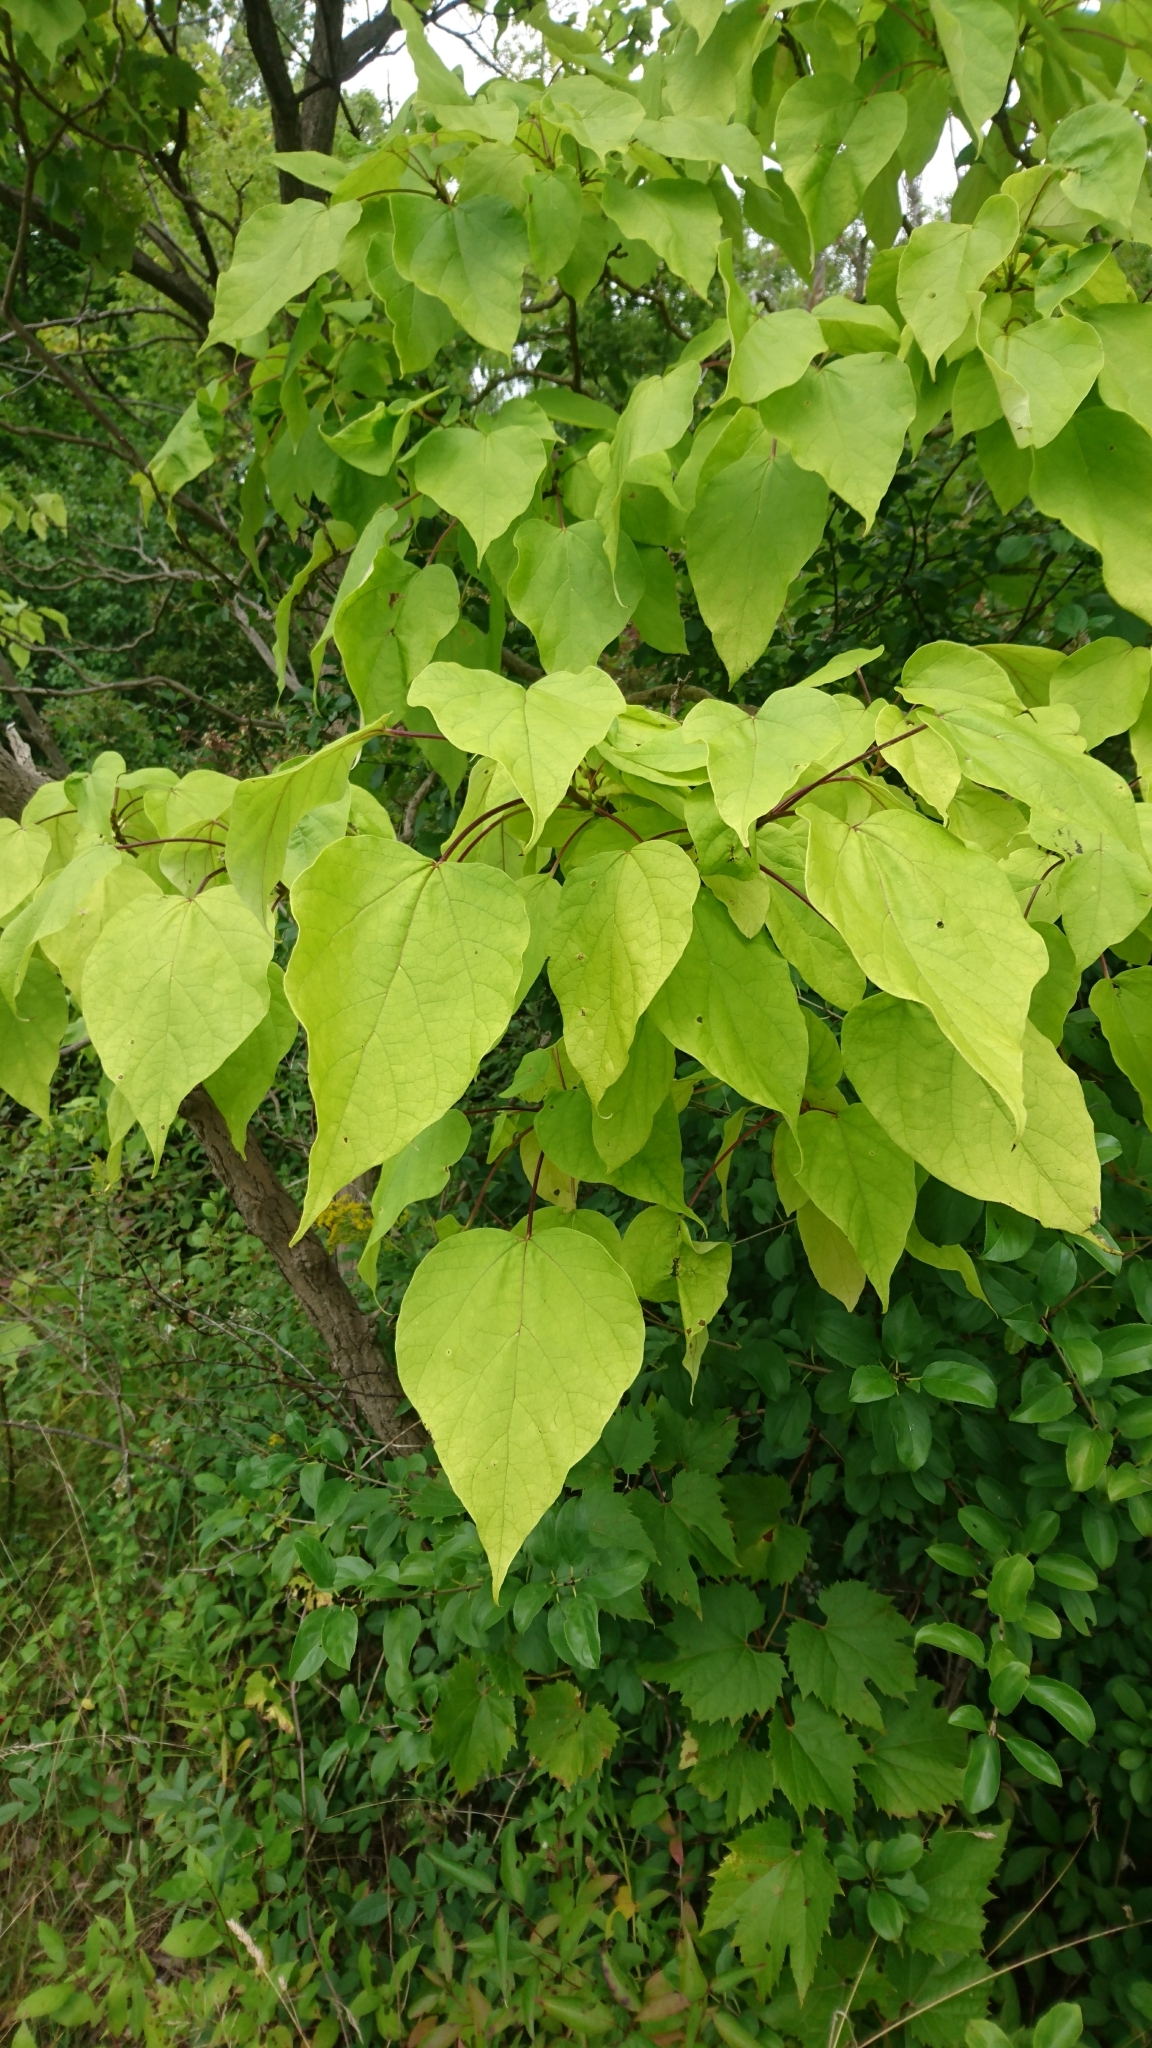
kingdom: Plantae
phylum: Tracheophyta
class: Magnoliopsida
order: Lamiales
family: Bignoniaceae
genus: Catalpa
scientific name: Catalpa speciosa
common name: Northern catalpa
